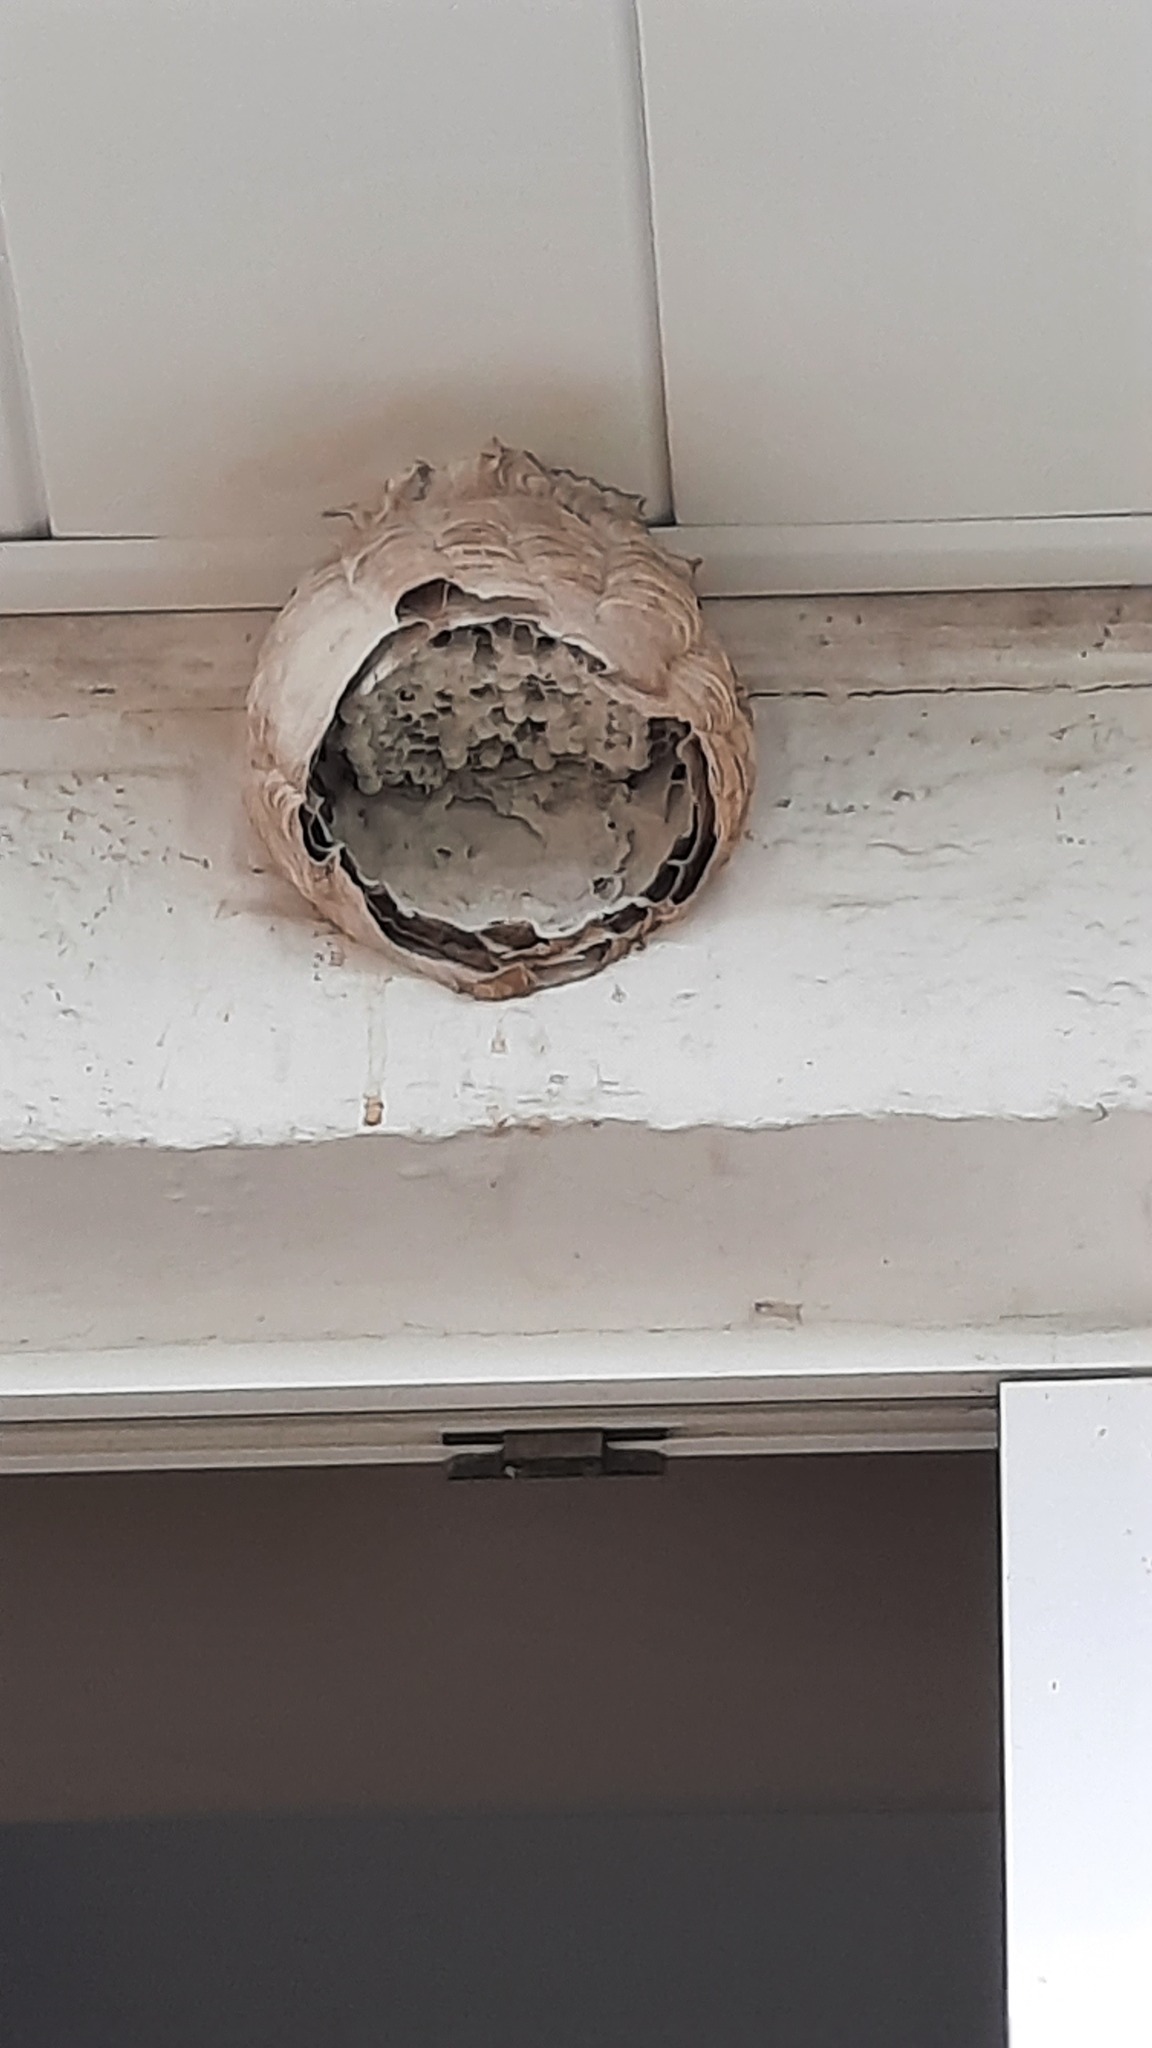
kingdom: Animalia
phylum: Arthropoda
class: Insecta
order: Hymenoptera
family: Vespidae
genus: Vespa
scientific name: Vespa velutina
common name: Asian hornet
